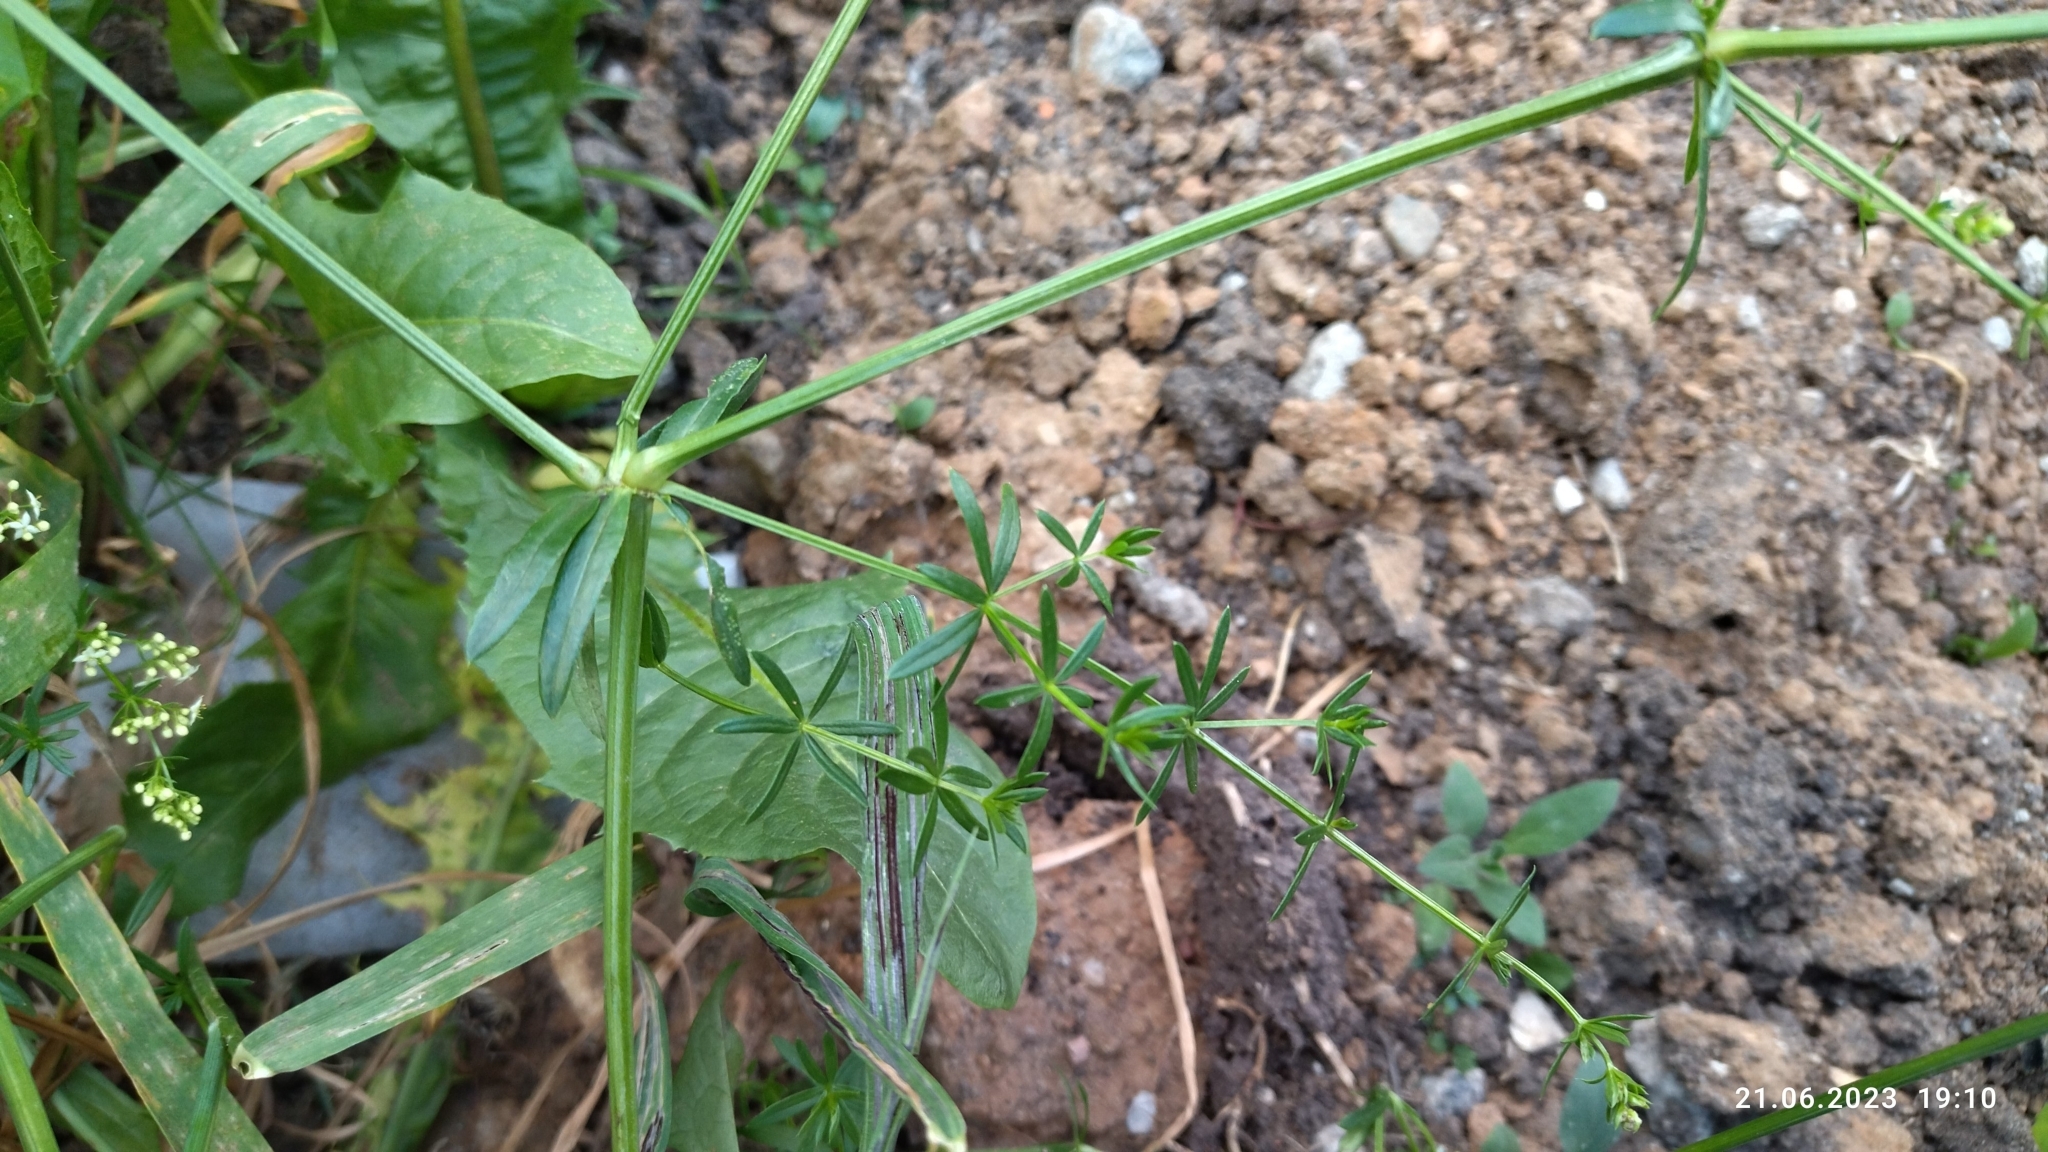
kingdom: Plantae
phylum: Tracheophyta
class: Magnoliopsida
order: Gentianales
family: Rubiaceae
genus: Galium
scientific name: Galium mollugo
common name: Hedge bedstraw
